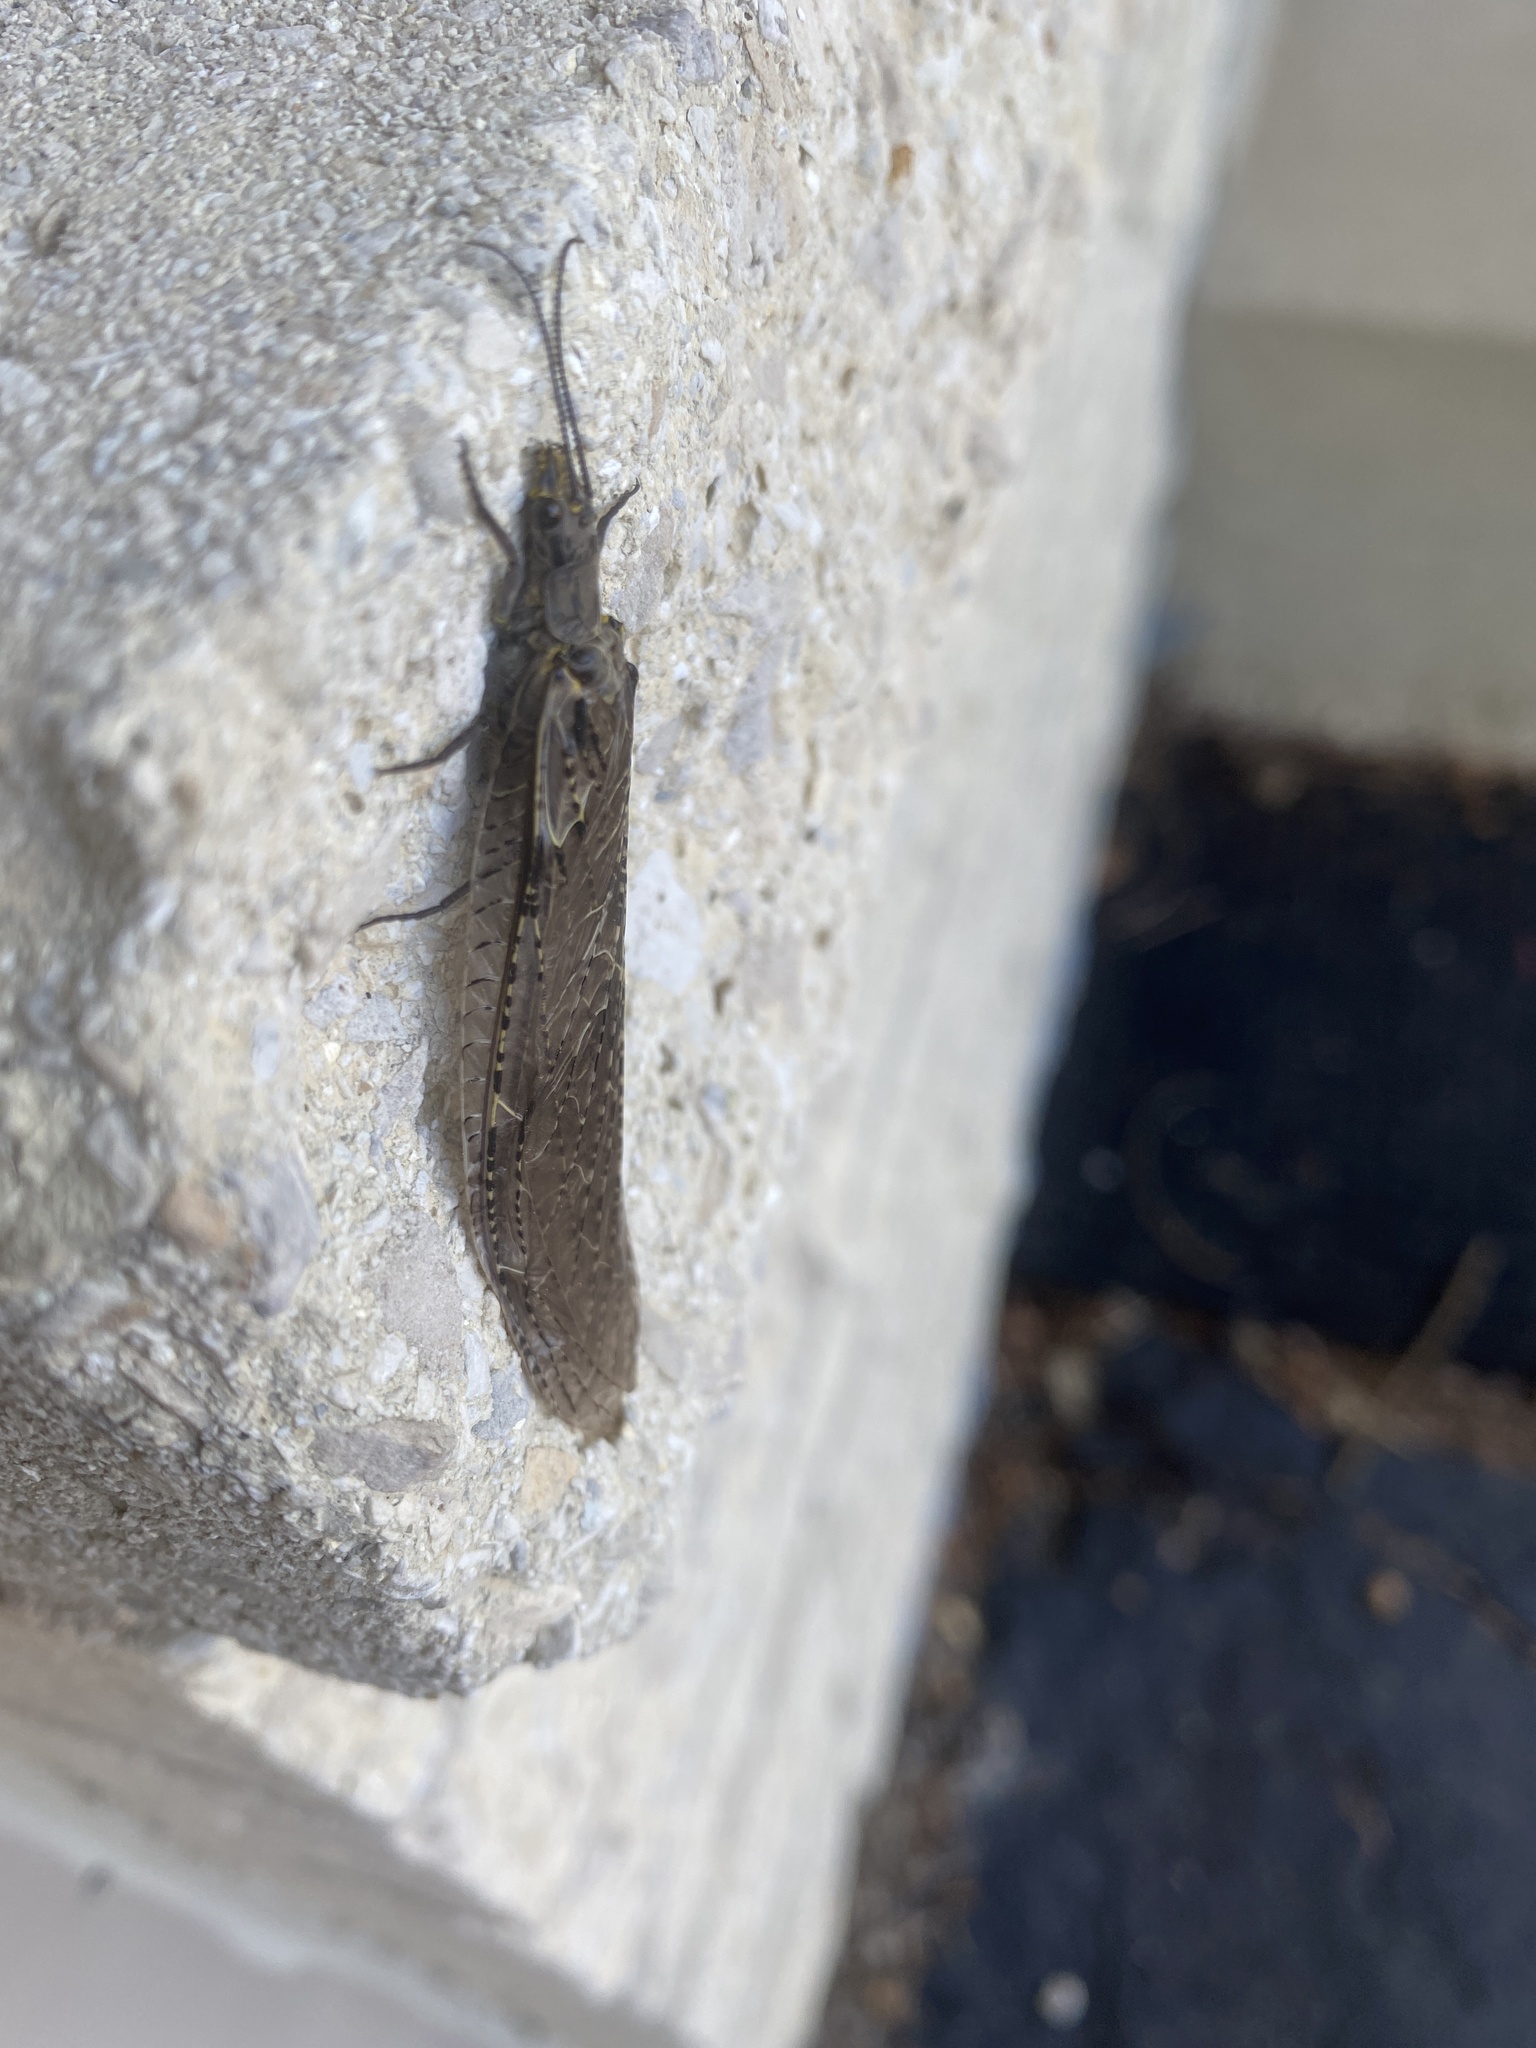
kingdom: Animalia
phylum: Arthropoda
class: Insecta
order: Megaloptera
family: Corydalidae
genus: Chauliodes
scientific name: Chauliodes rastricornis
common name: Spring fishfly
